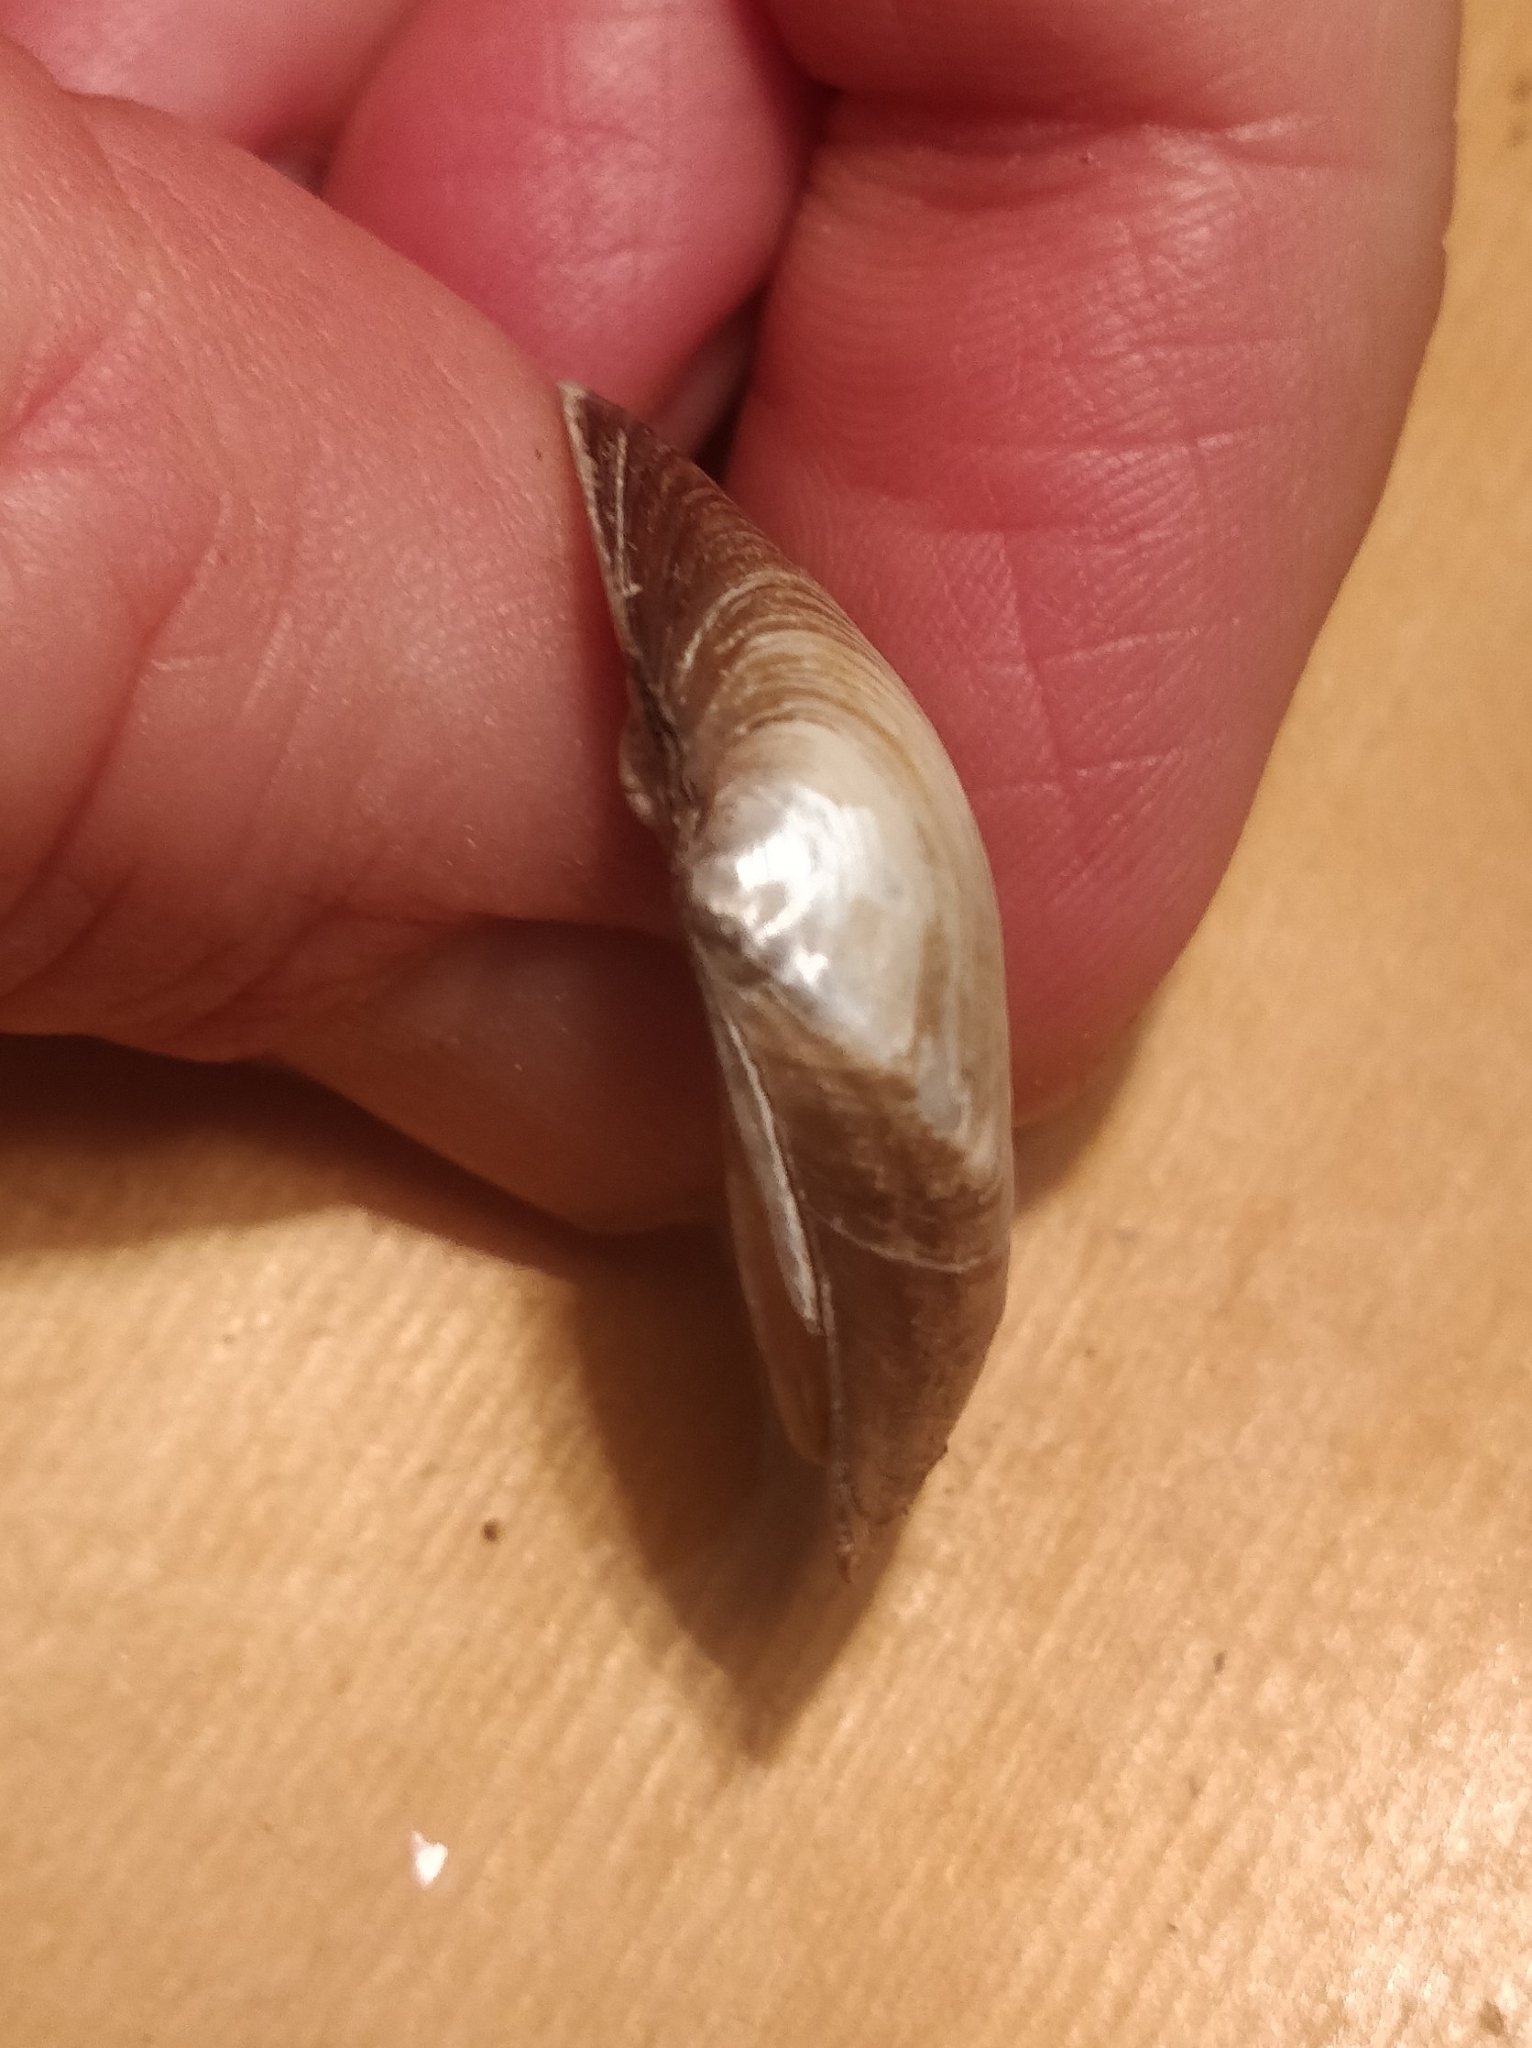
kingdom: Animalia
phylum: Mollusca
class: Bivalvia
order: Unionida
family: Unionidae
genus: Fusconaia
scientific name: Fusconaia flava
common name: Wabash pigtoe
